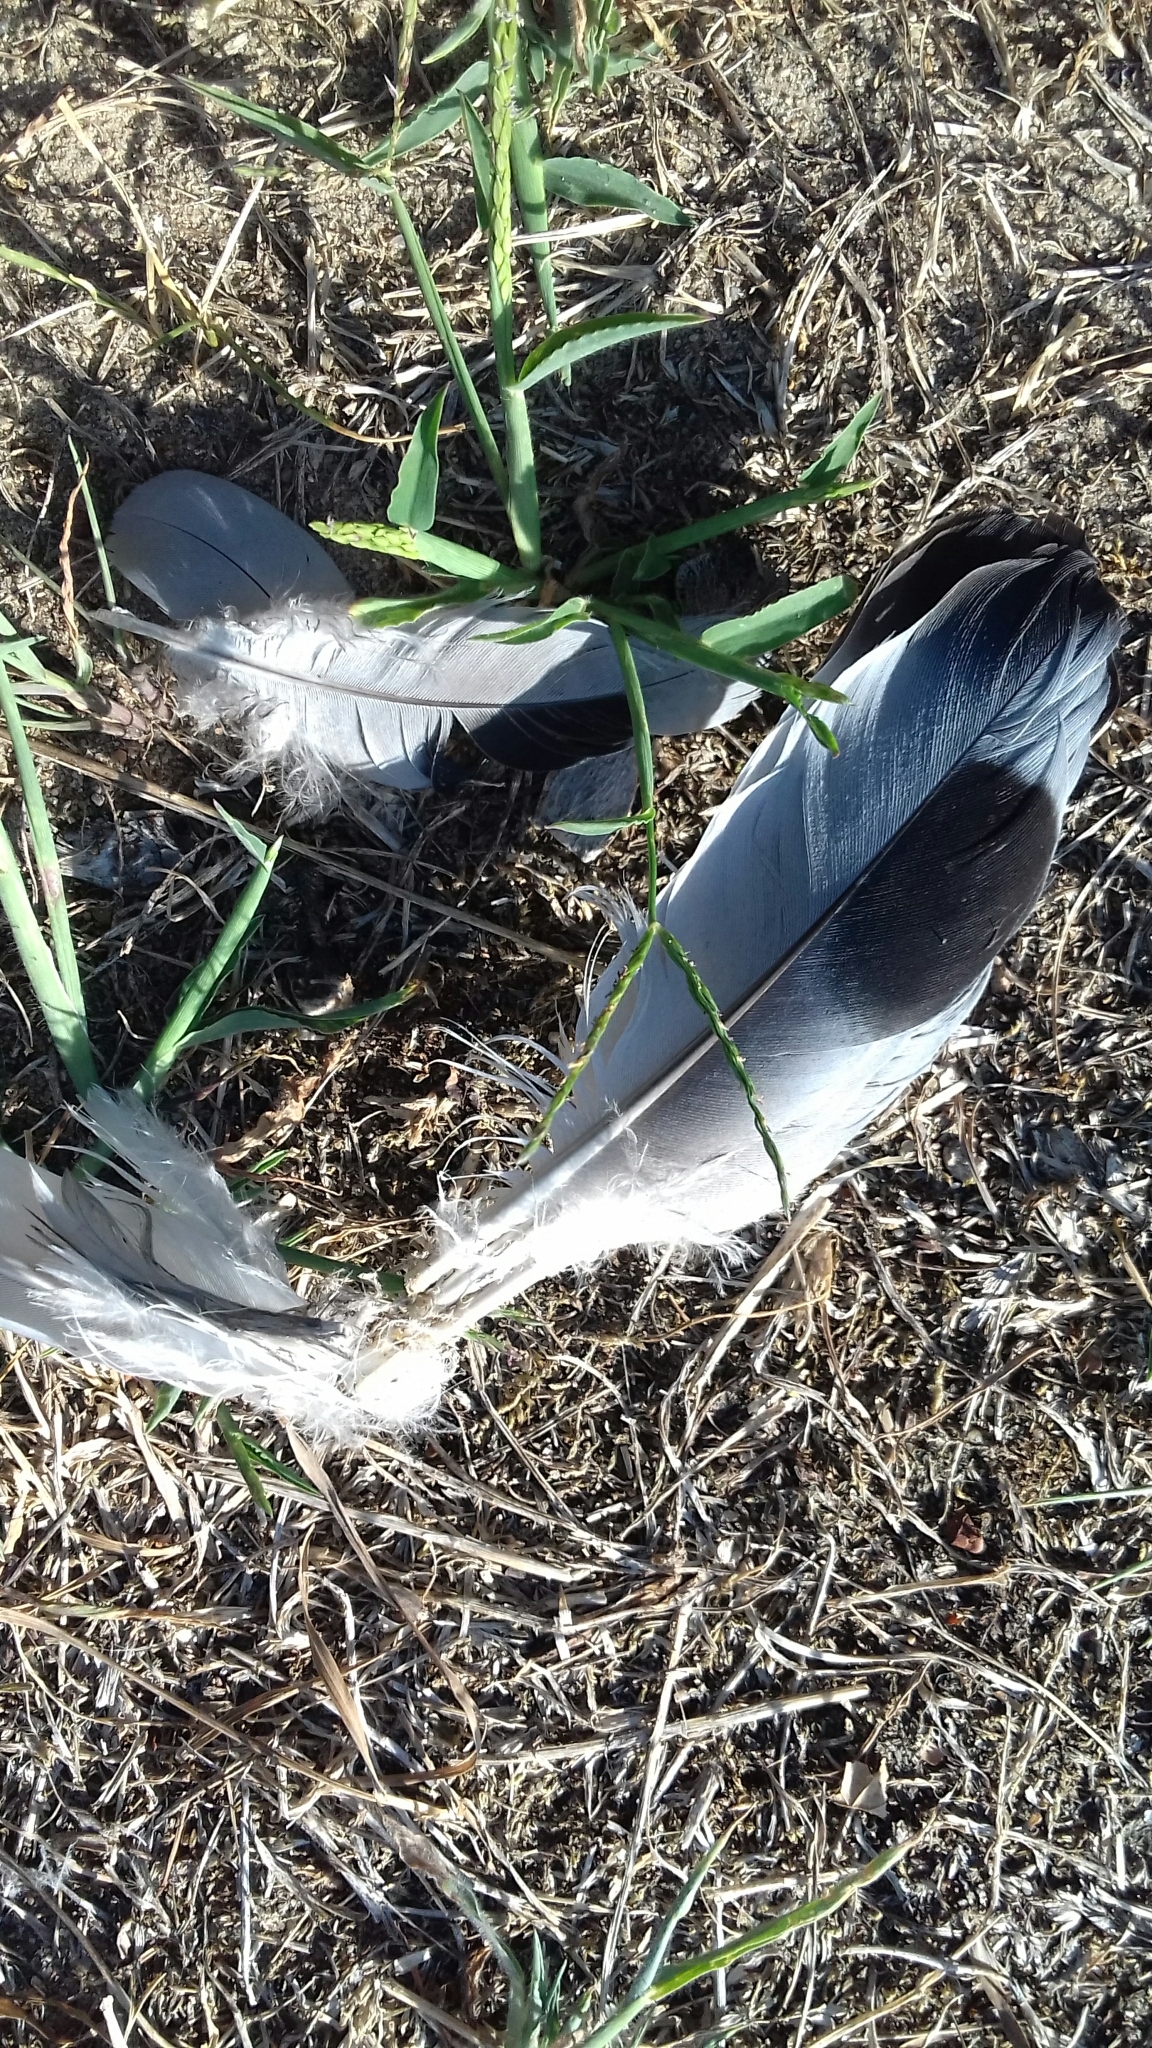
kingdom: Animalia
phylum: Chordata
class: Aves
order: Columbiformes
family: Columbidae
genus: Columba
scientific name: Columba livia
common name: Rock pigeon
